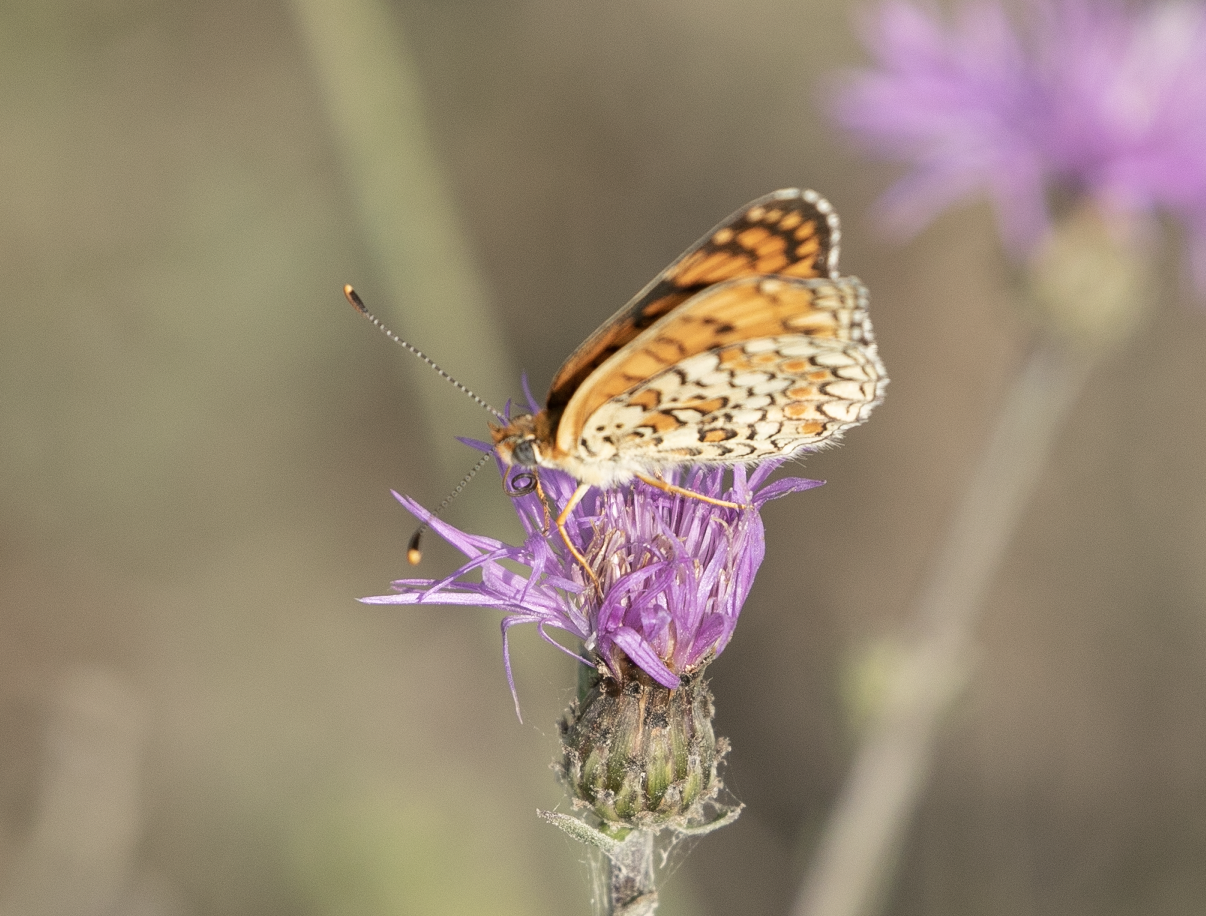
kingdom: Animalia
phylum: Arthropoda
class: Insecta
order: Lepidoptera
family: Nymphalidae
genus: Melitaea
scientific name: Melitaea phoebe
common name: Knapweed fritillary
